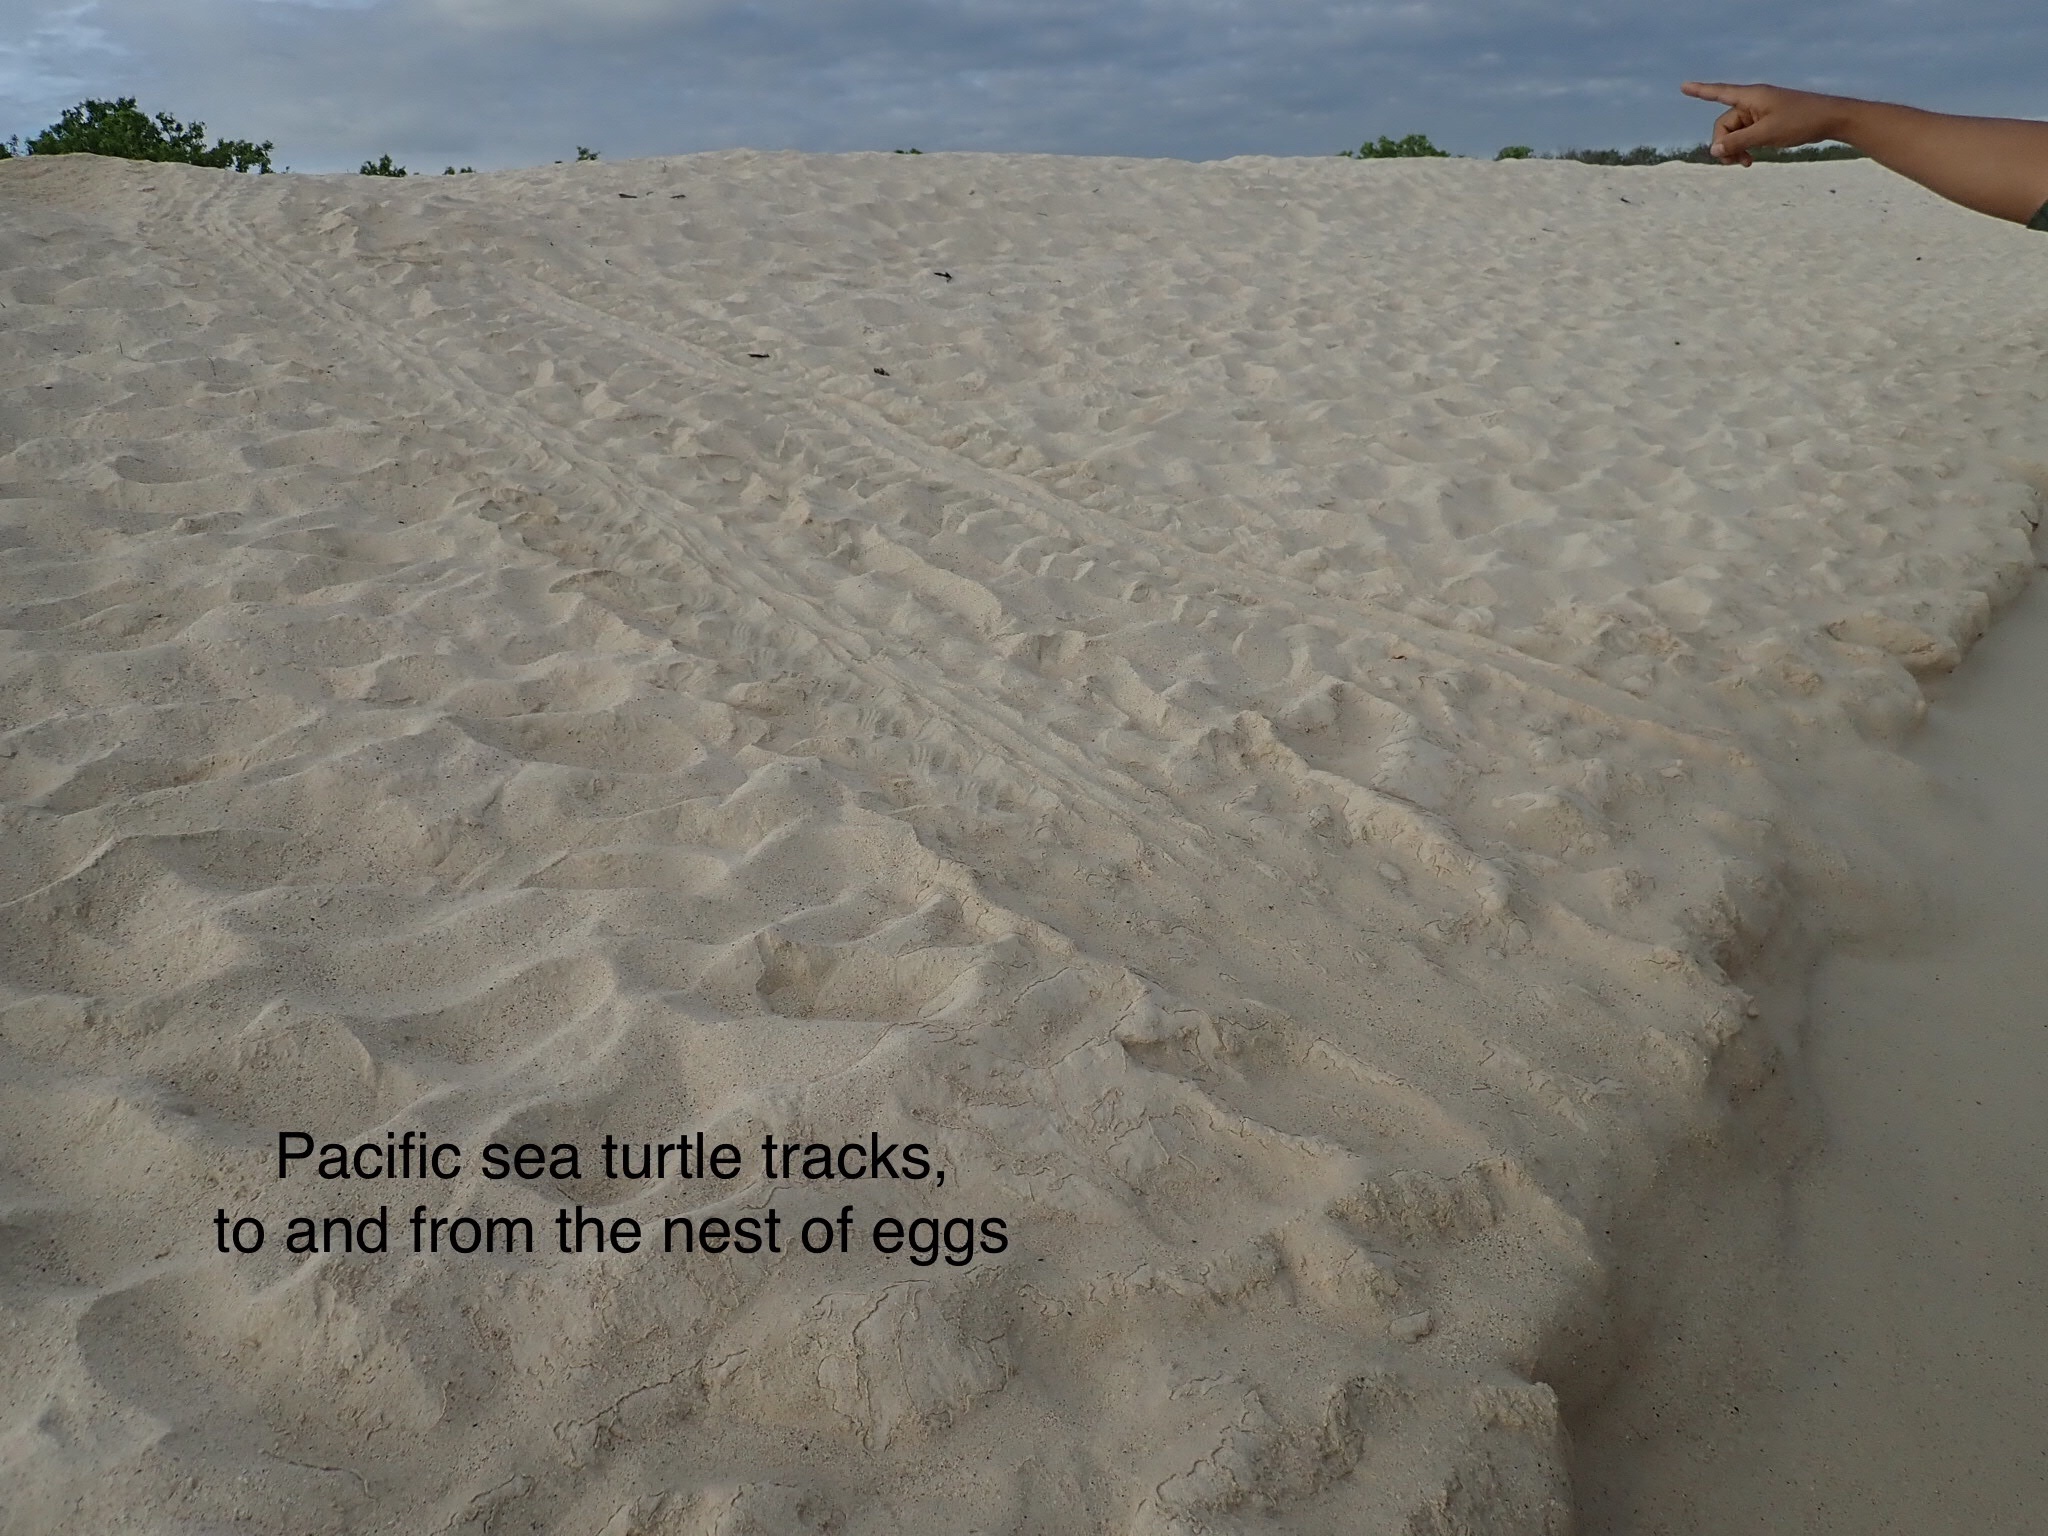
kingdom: Animalia
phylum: Chordata
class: Testudines
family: Cheloniidae
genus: Chelonia
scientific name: Chelonia mydas
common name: Green turtle
